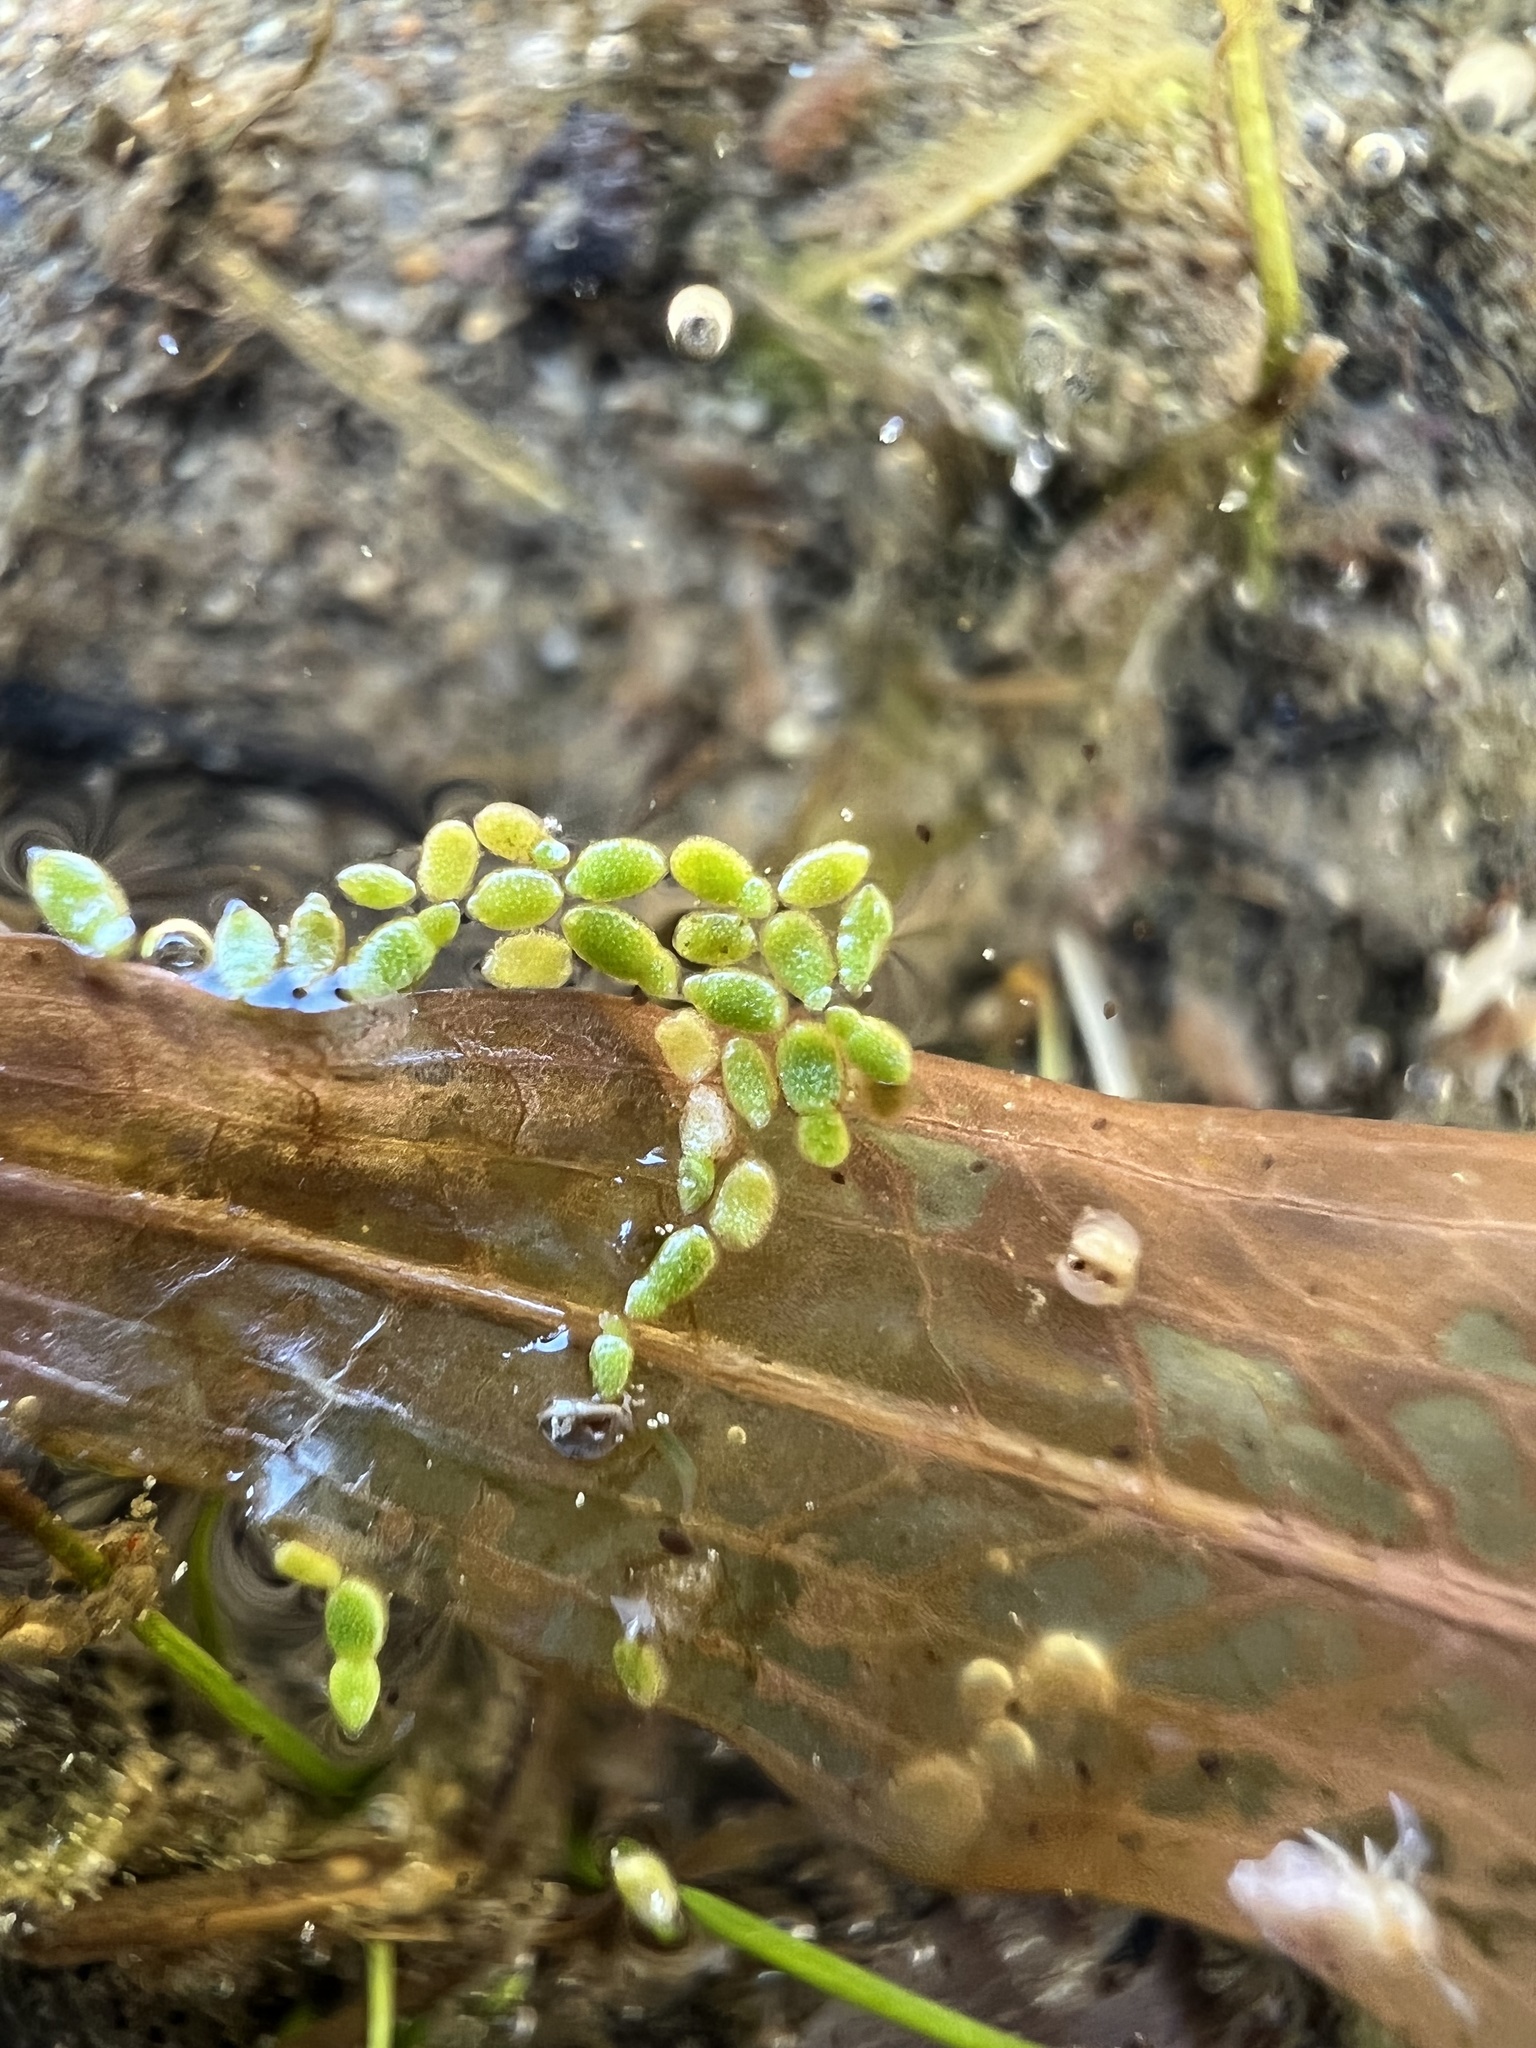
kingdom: Plantae
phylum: Tracheophyta
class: Liliopsida
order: Alismatales
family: Araceae
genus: Wolffia
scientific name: Wolffia borealis
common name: Dotted watermeal
